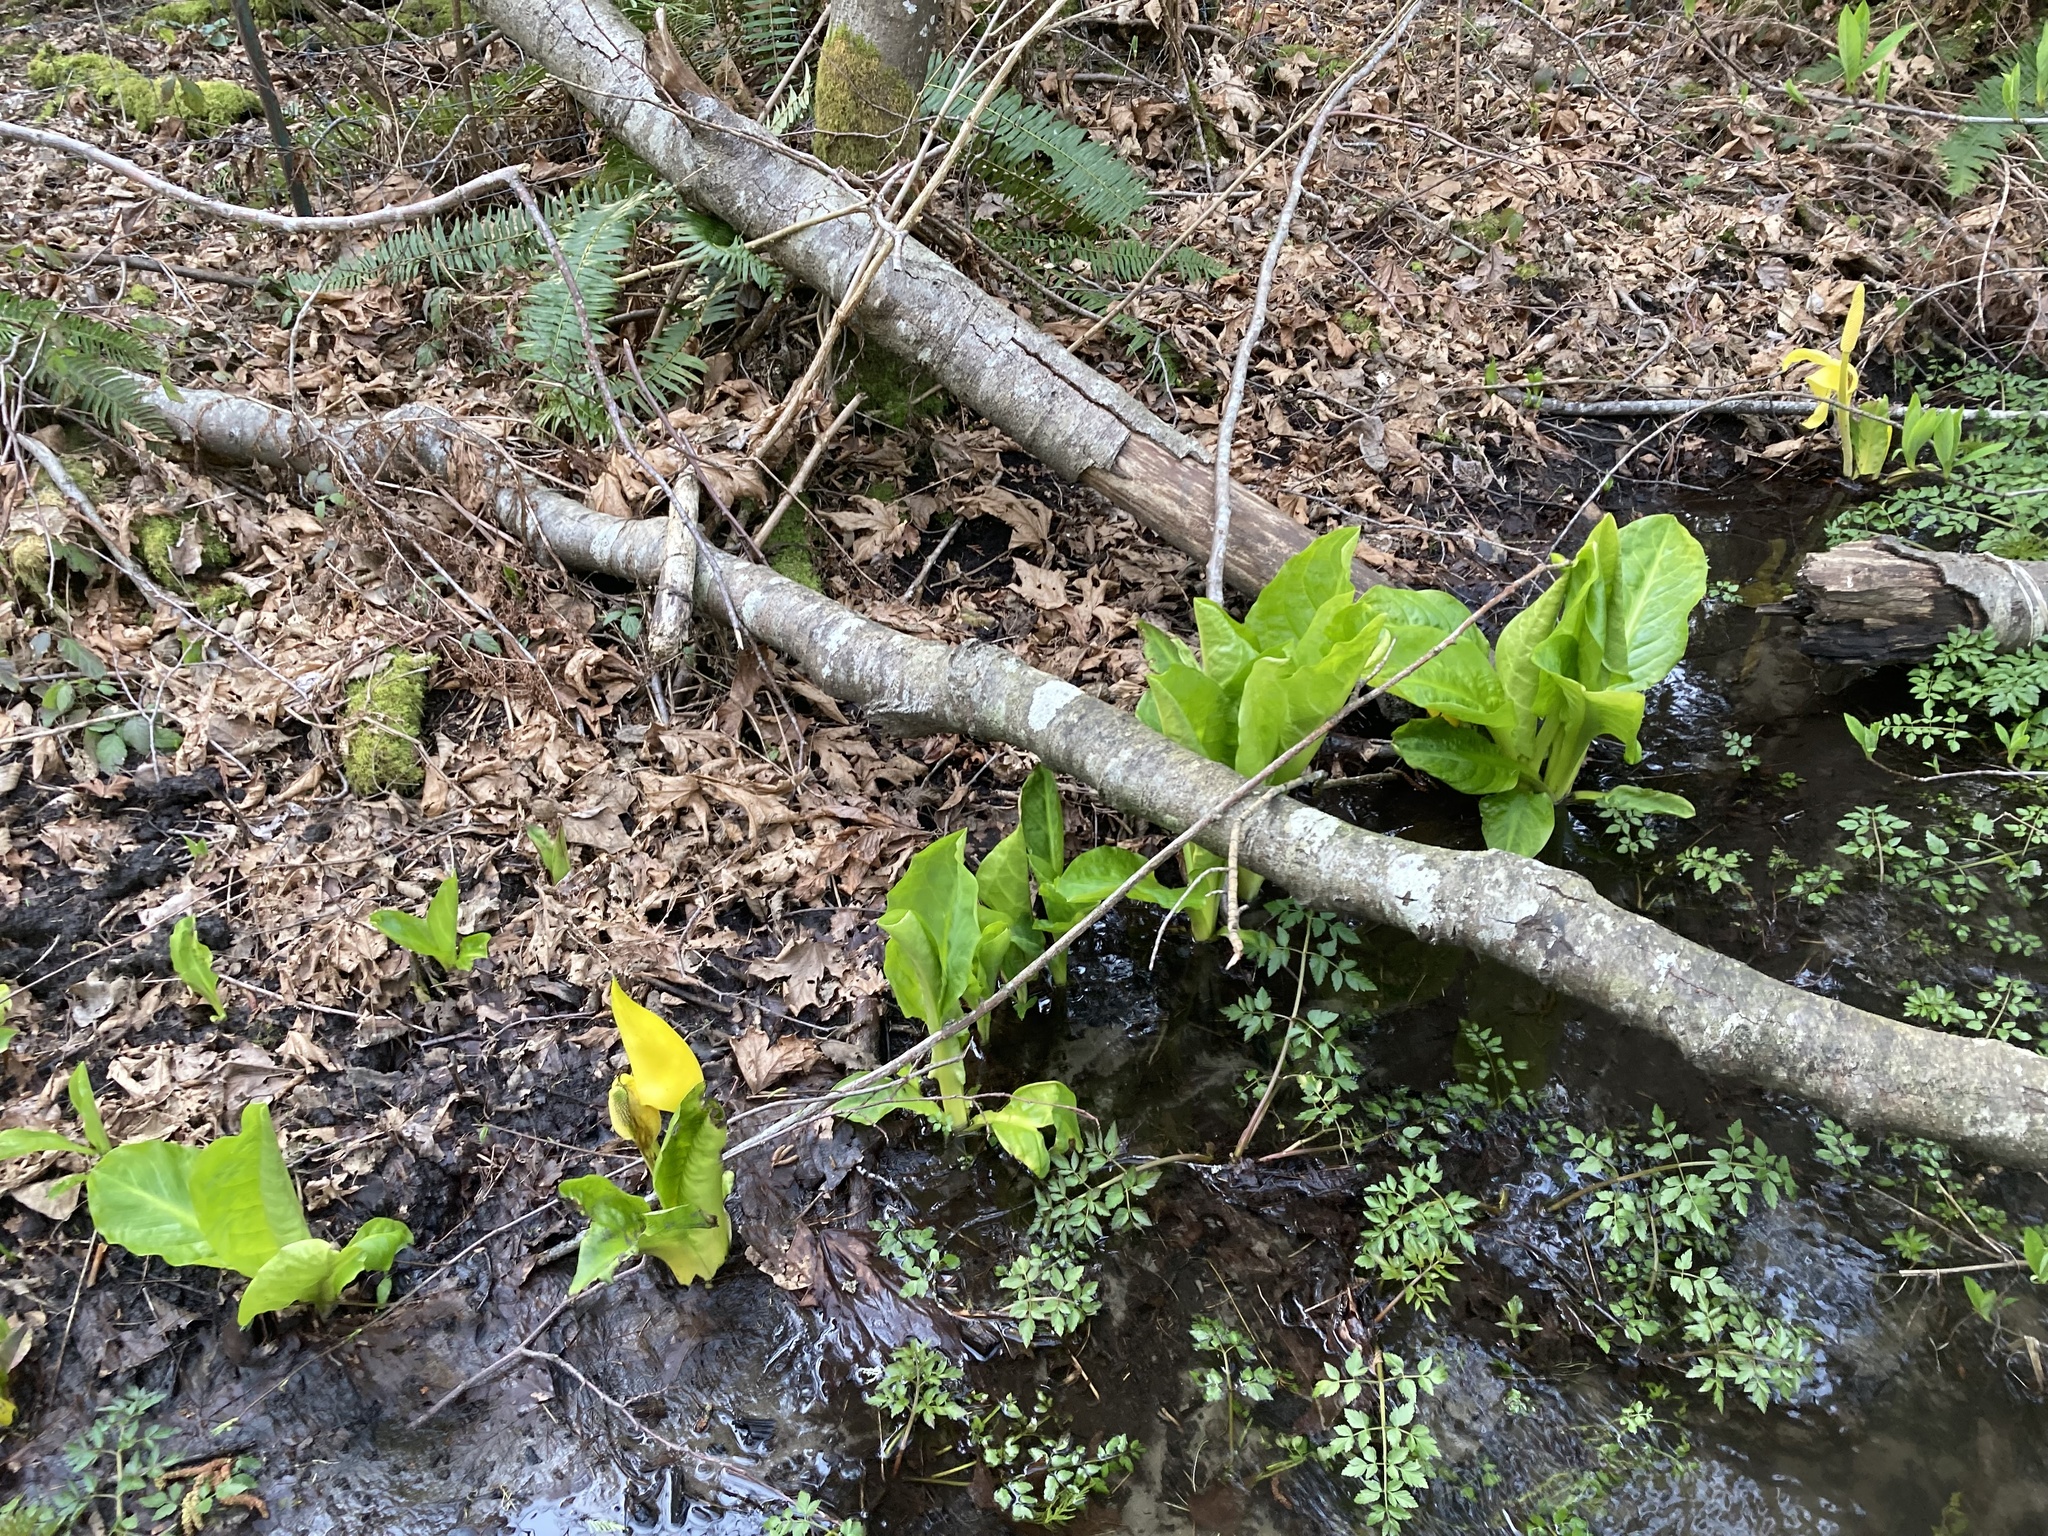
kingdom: Plantae
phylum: Tracheophyta
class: Liliopsida
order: Alismatales
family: Araceae
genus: Lysichiton
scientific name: Lysichiton americanus
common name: American skunk cabbage
